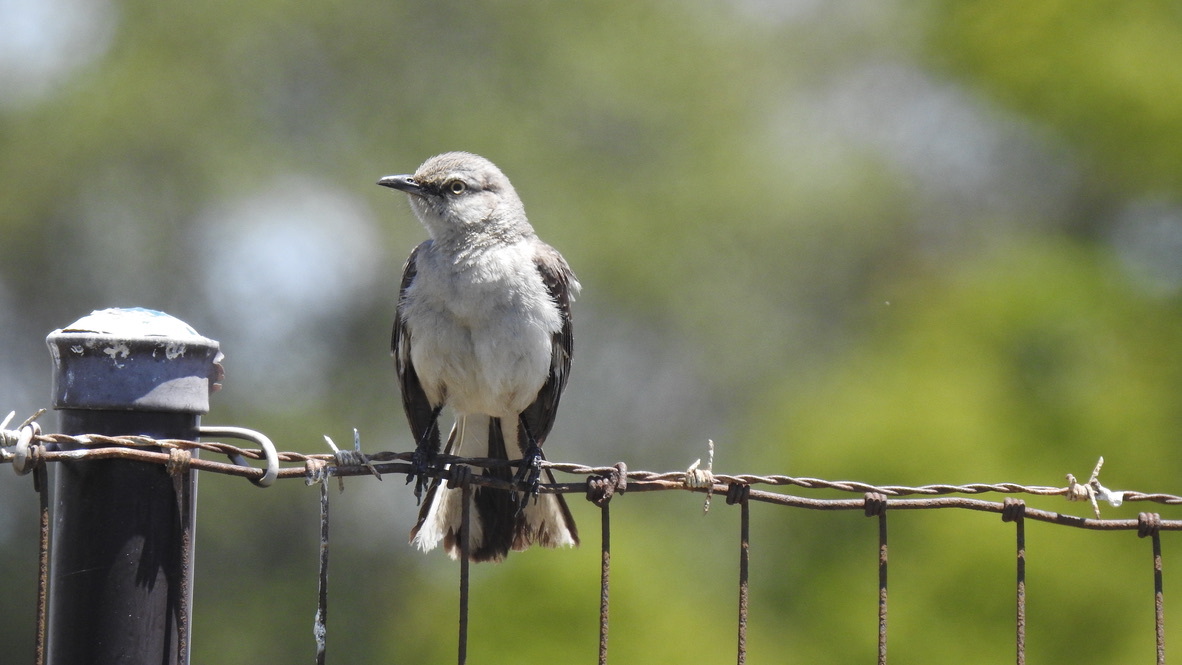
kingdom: Animalia
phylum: Chordata
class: Aves
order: Passeriformes
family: Mimidae
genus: Mimus
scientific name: Mimus polyglottos
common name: Northern mockingbird
